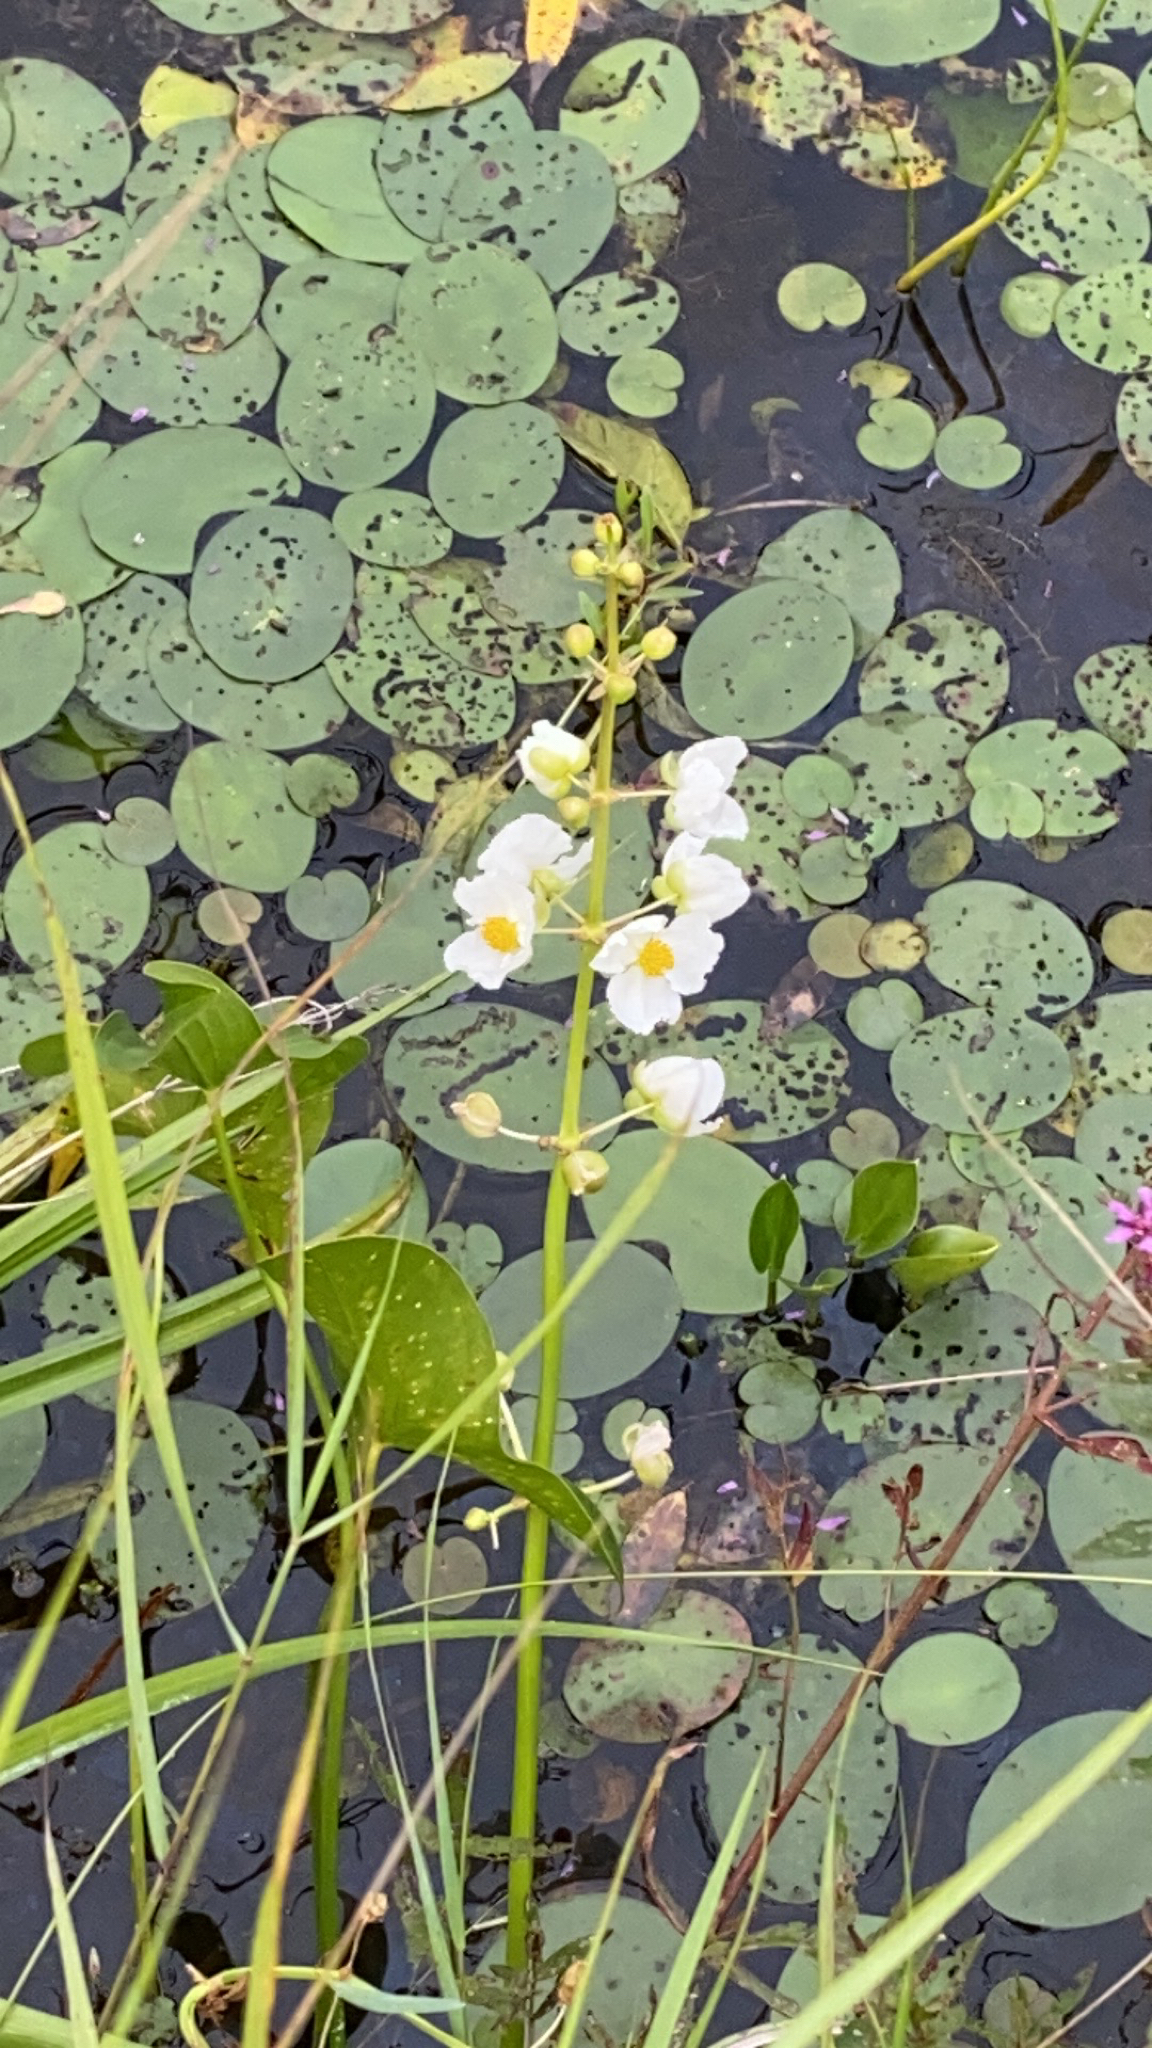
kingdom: Plantae
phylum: Tracheophyta
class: Liliopsida
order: Alismatales
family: Alismataceae
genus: Sagittaria
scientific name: Sagittaria latifolia
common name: Duck-potato
